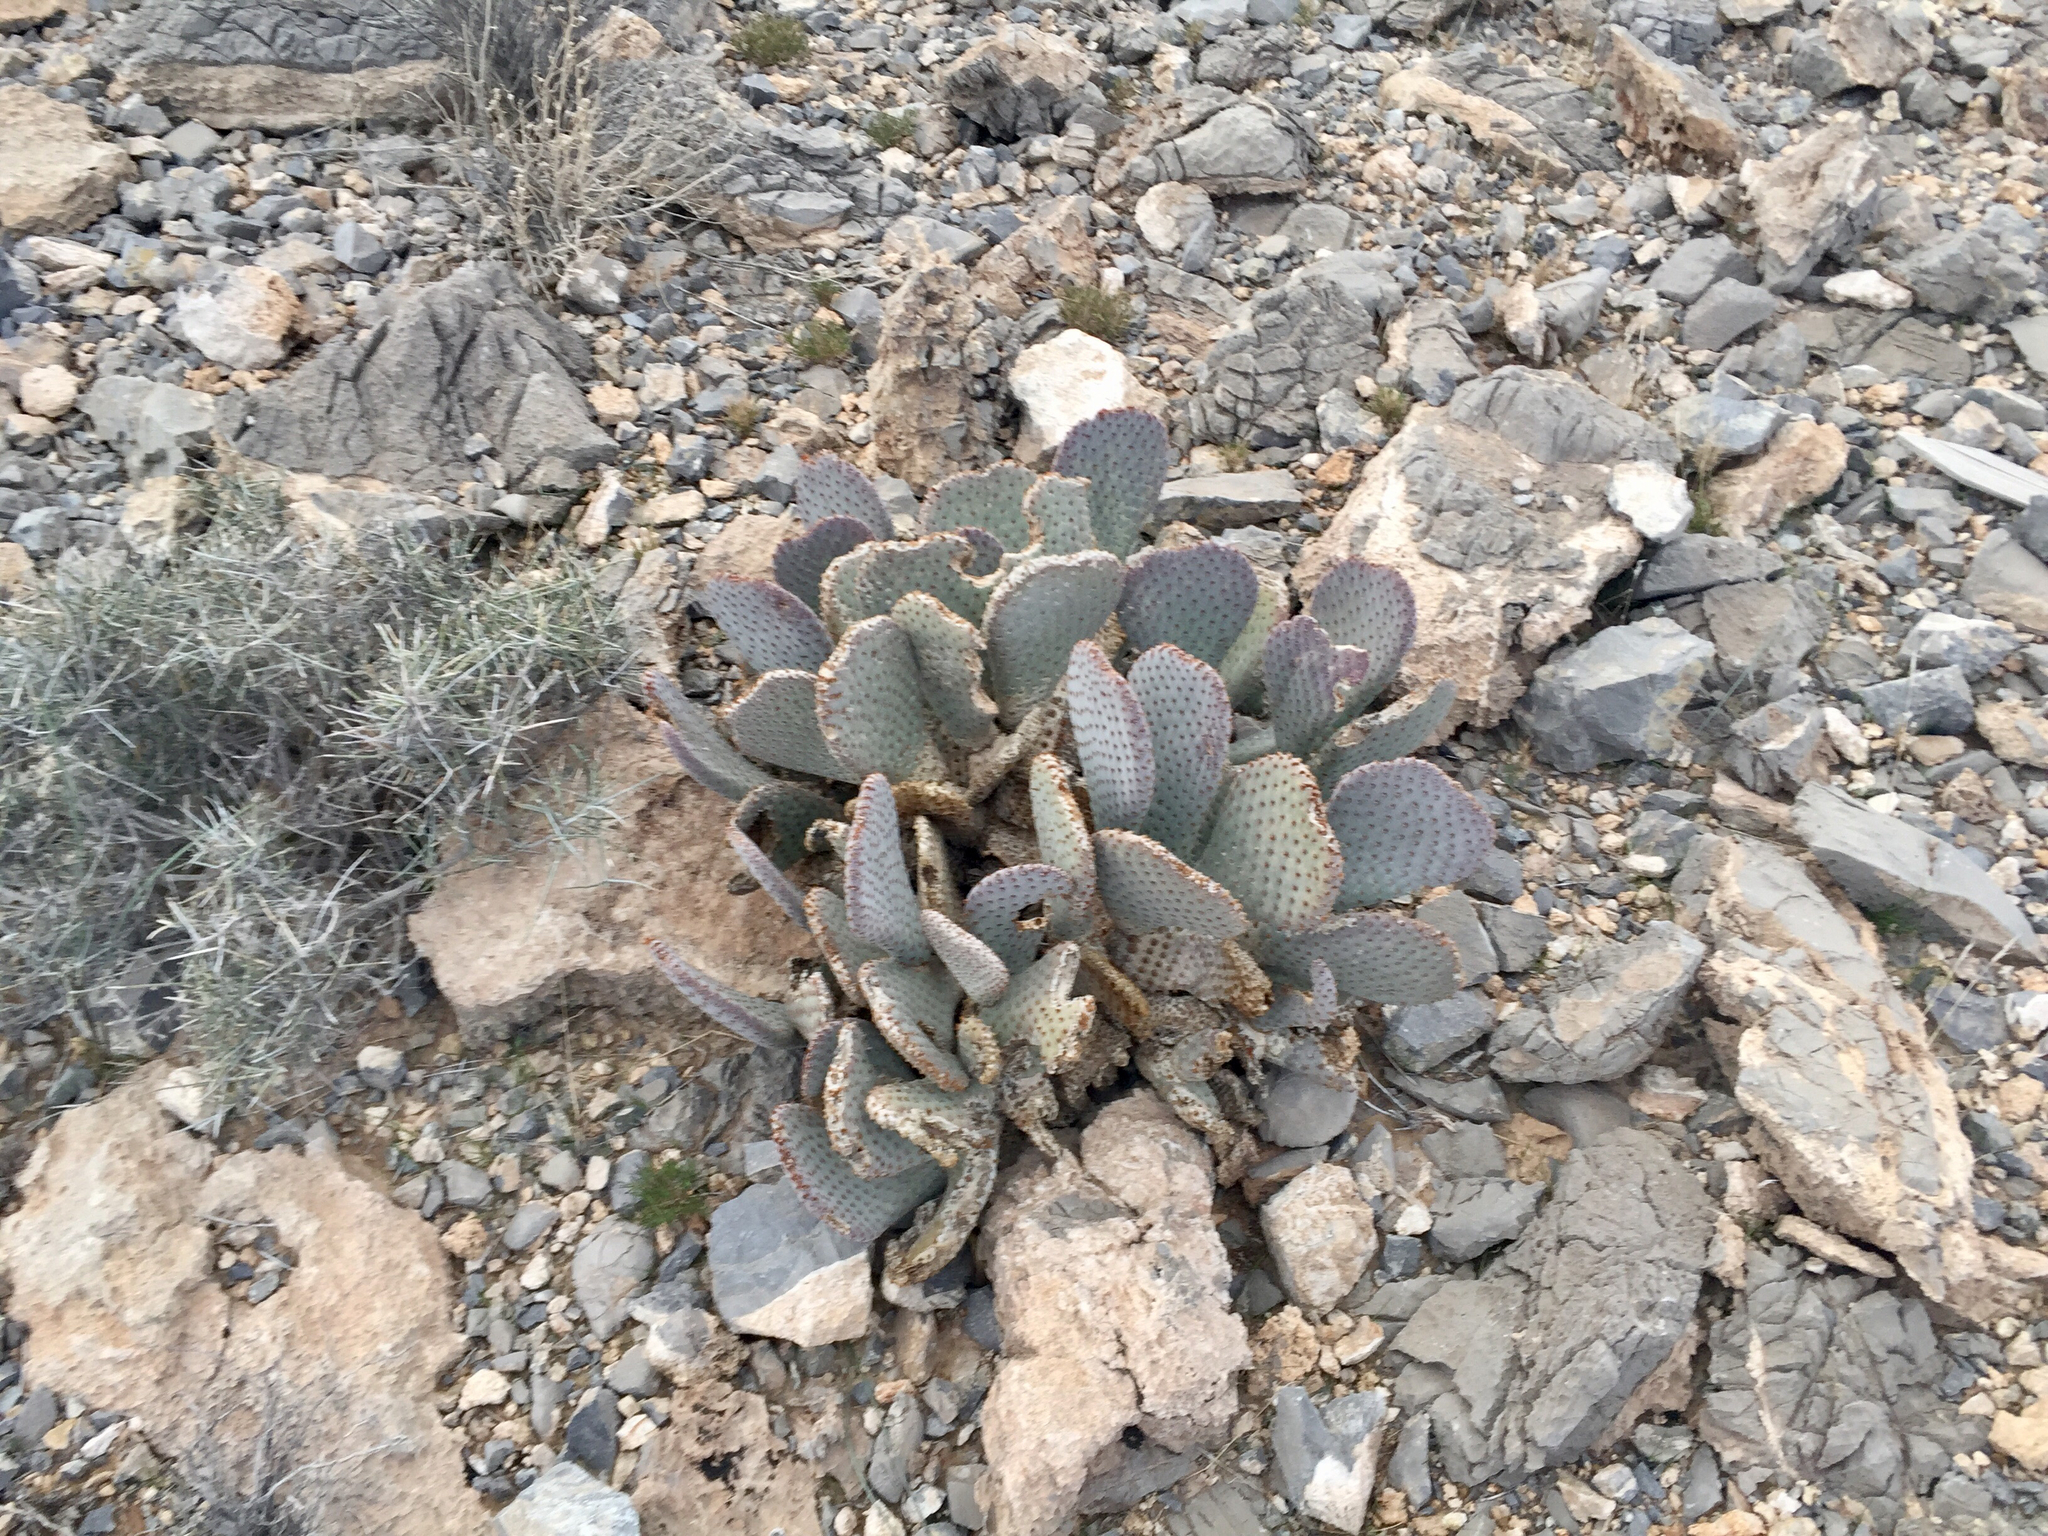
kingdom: Plantae
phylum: Tracheophyta
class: Magnoliopsida
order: Caryophyllales
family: Cactaceae
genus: Opuntia
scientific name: Opuntia basilaris
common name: Beavertail prickly-pear
